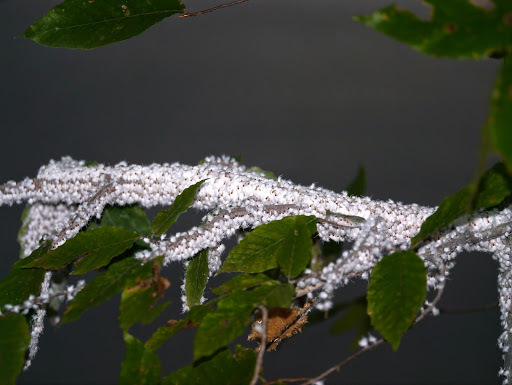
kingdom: Animalia
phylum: Arthropoda
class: Insecta
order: Hemiptera
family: Aphididae
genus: Grylloprociphilus
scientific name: Grylloprociphilus imbricator
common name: Beech blight aphid
